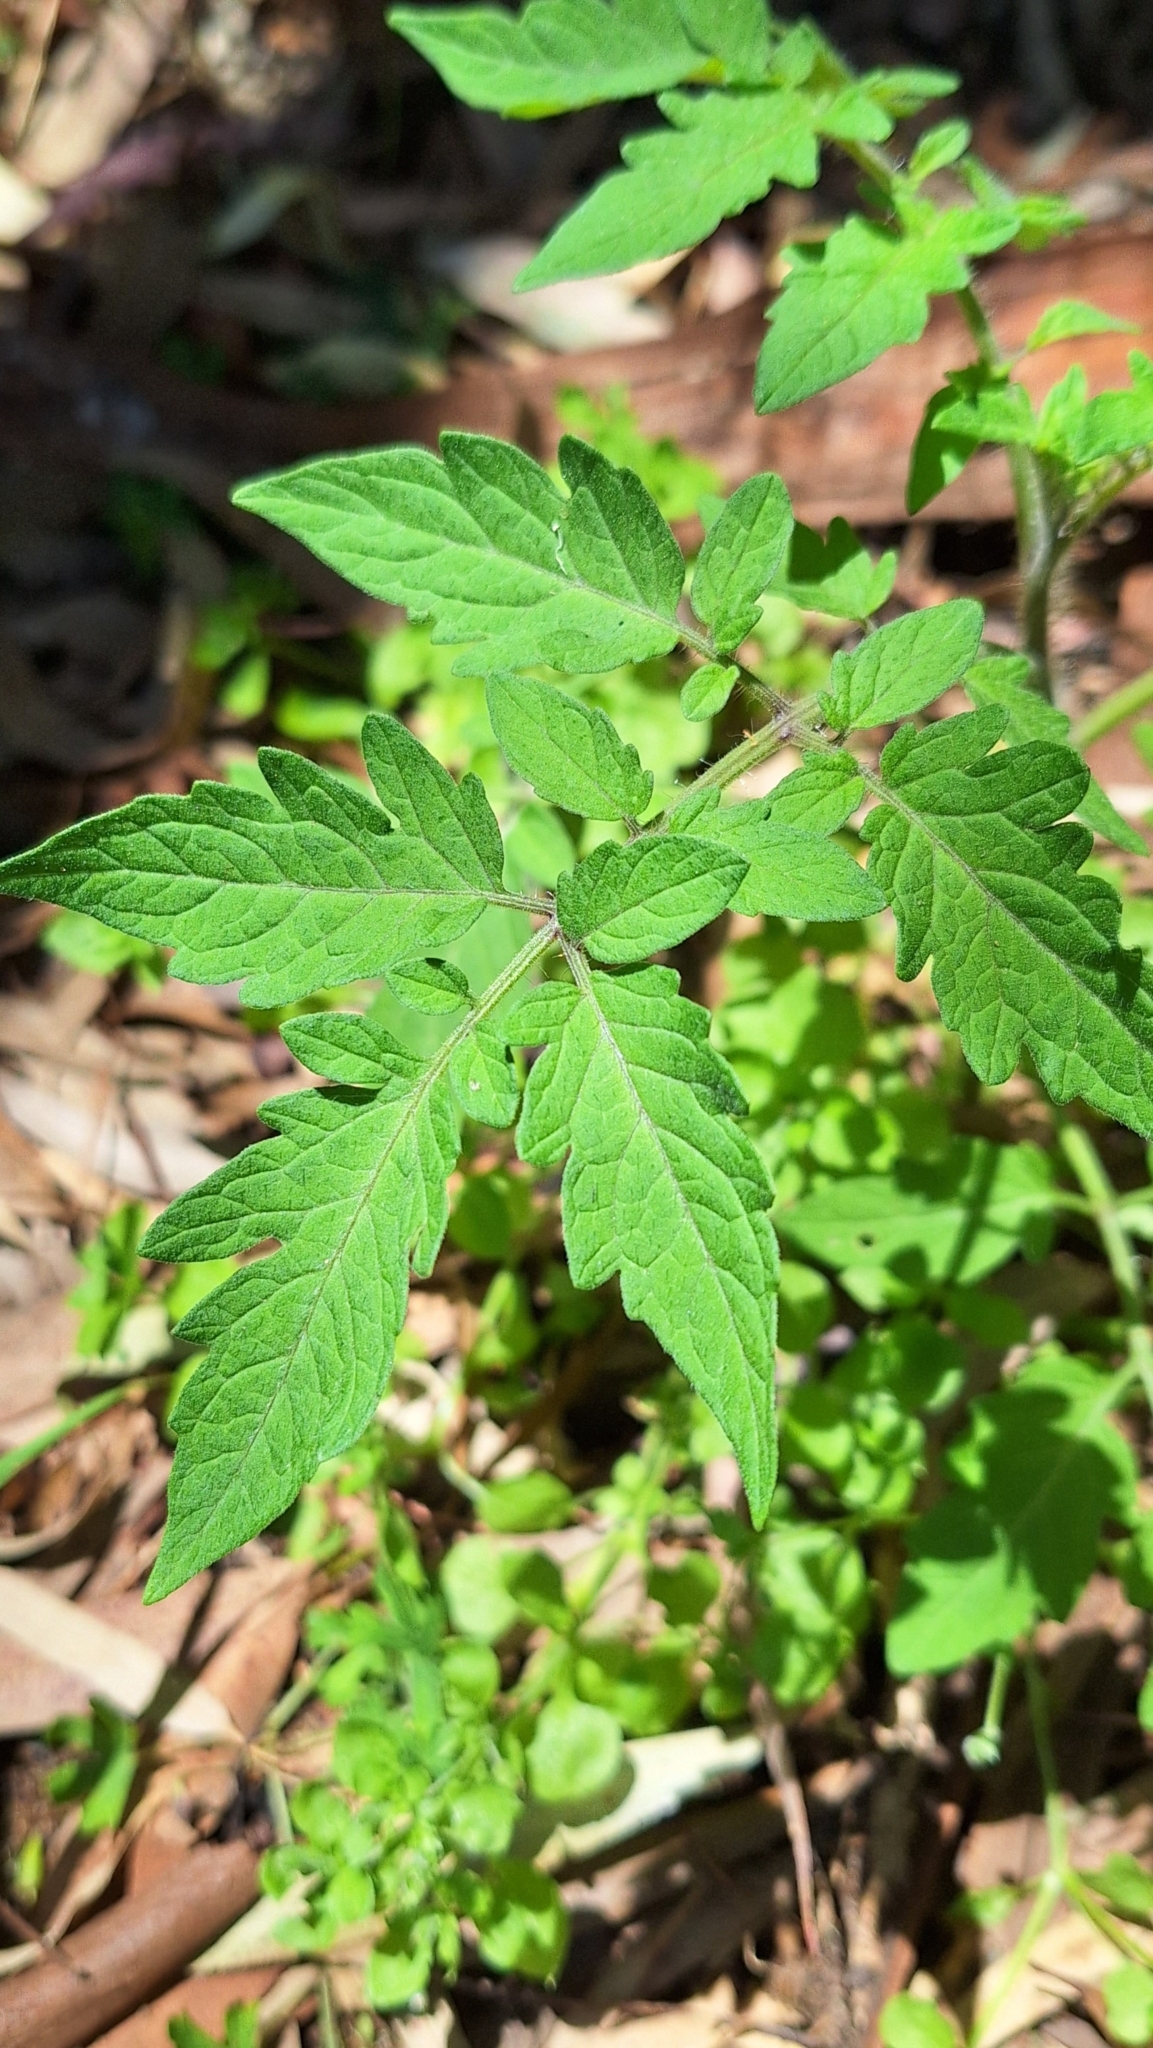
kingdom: Plantae
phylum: Tracheophyta
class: Magnoliopsida
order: Solanales
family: Solanaceae
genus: Solanum
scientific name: Solanum lycopersicum
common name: Garden tomato
